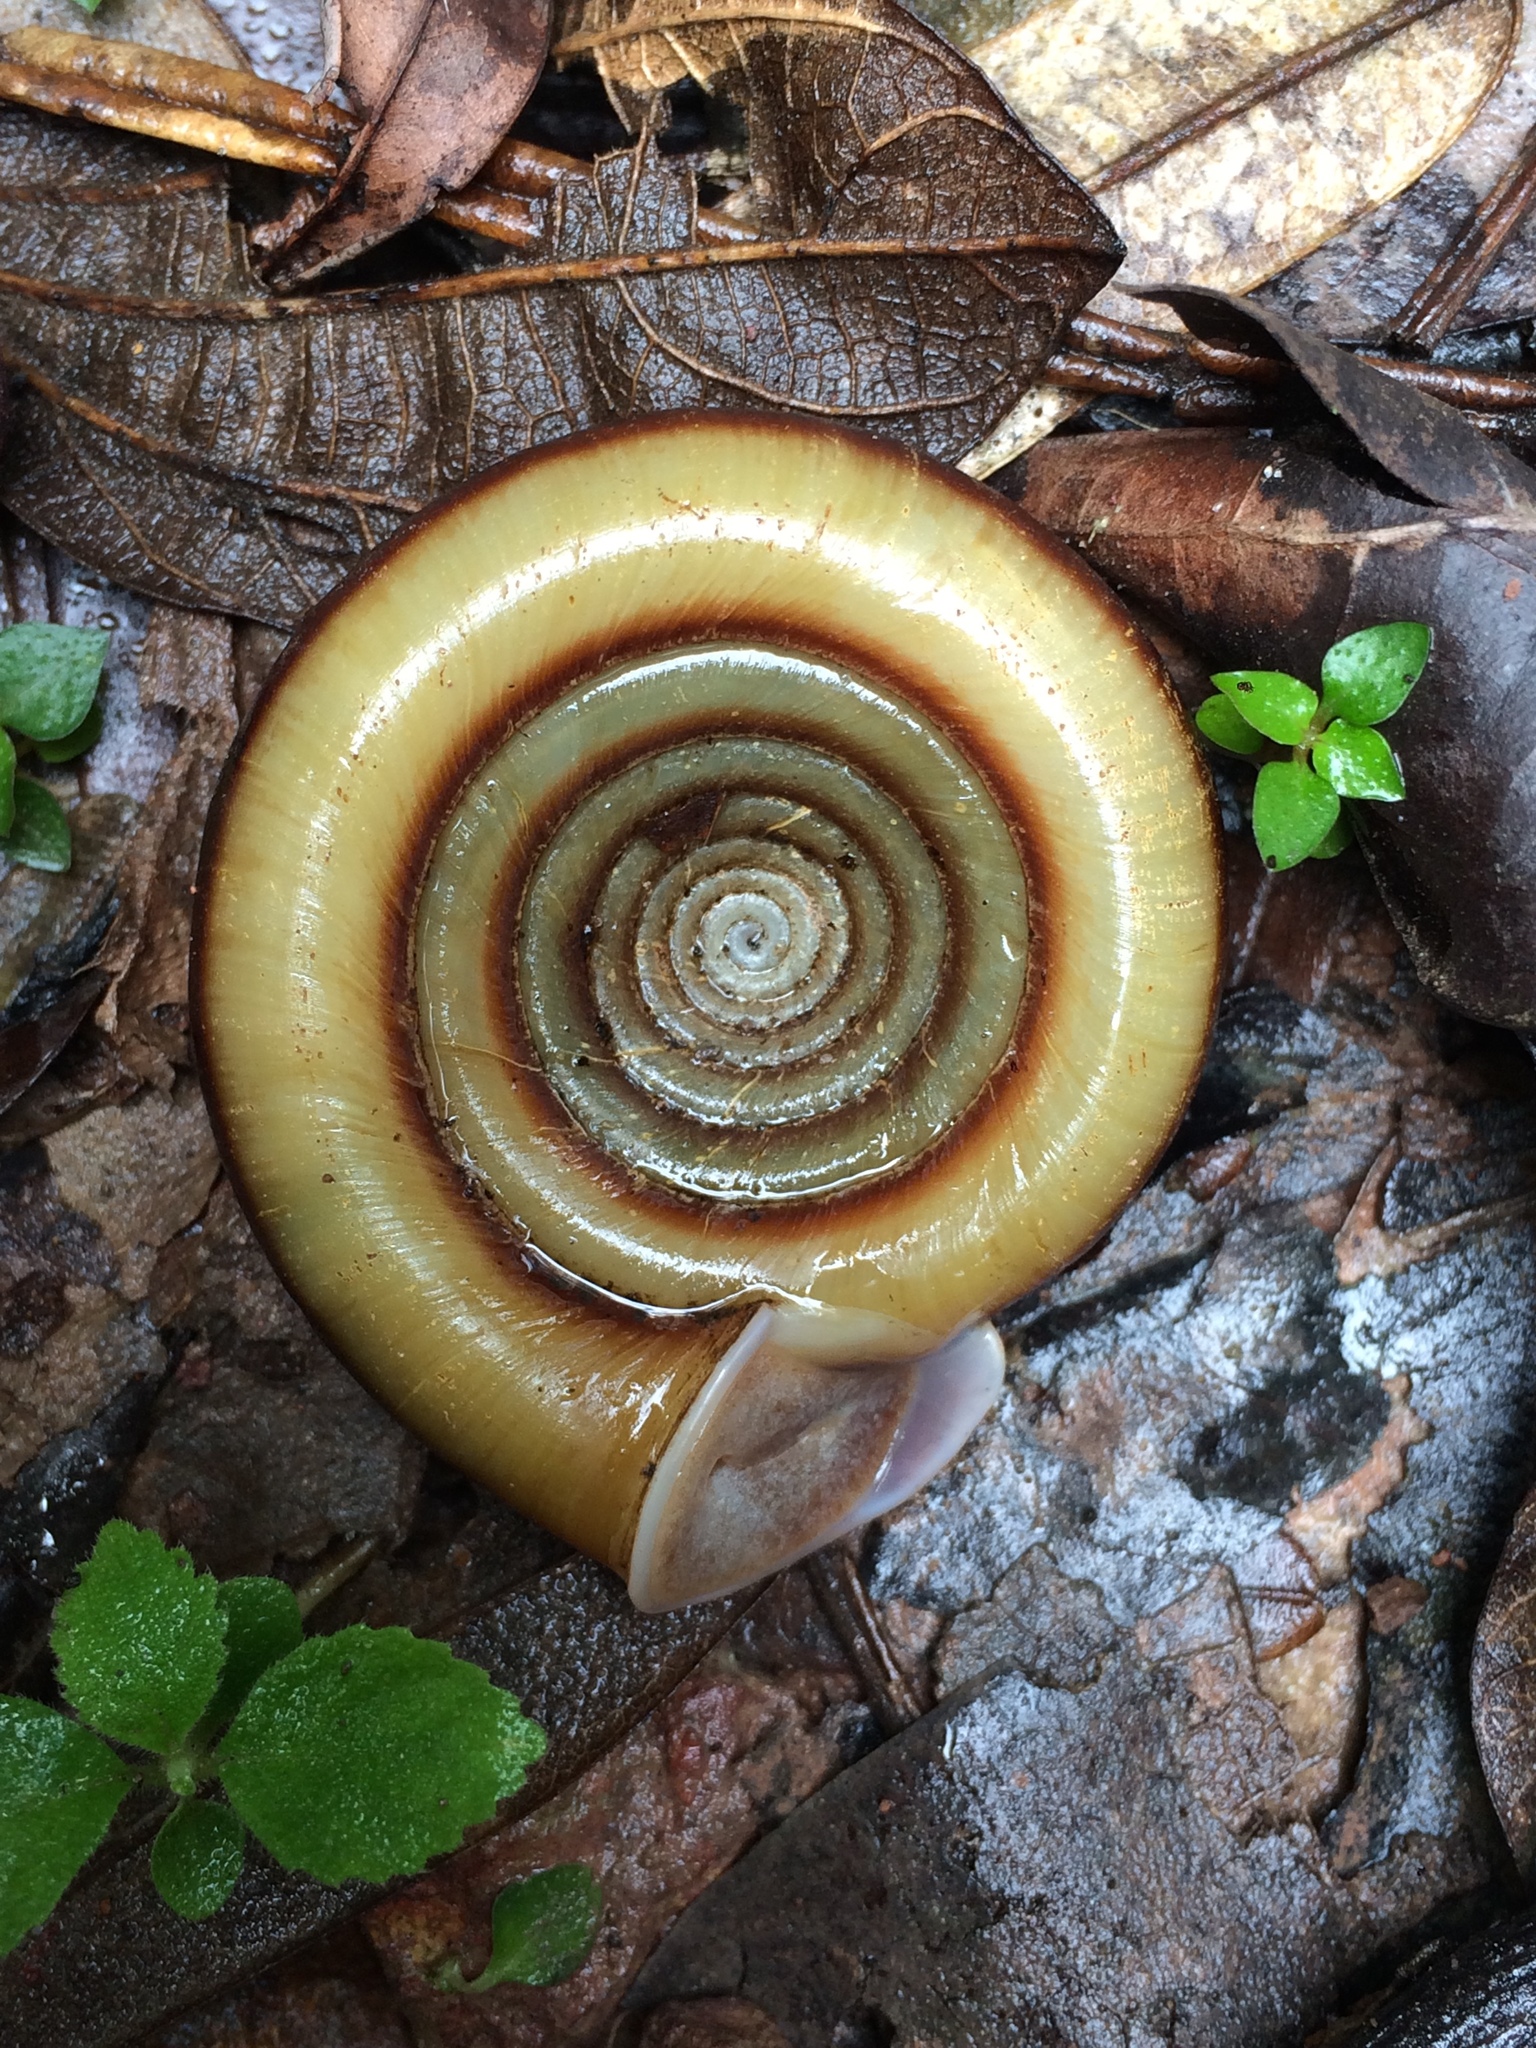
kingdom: Animalia
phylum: Mollusca
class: Gastropoda
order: Stylommatophora
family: Scolodontidae
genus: Polygyratia
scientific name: Polygyratia polygyrata
